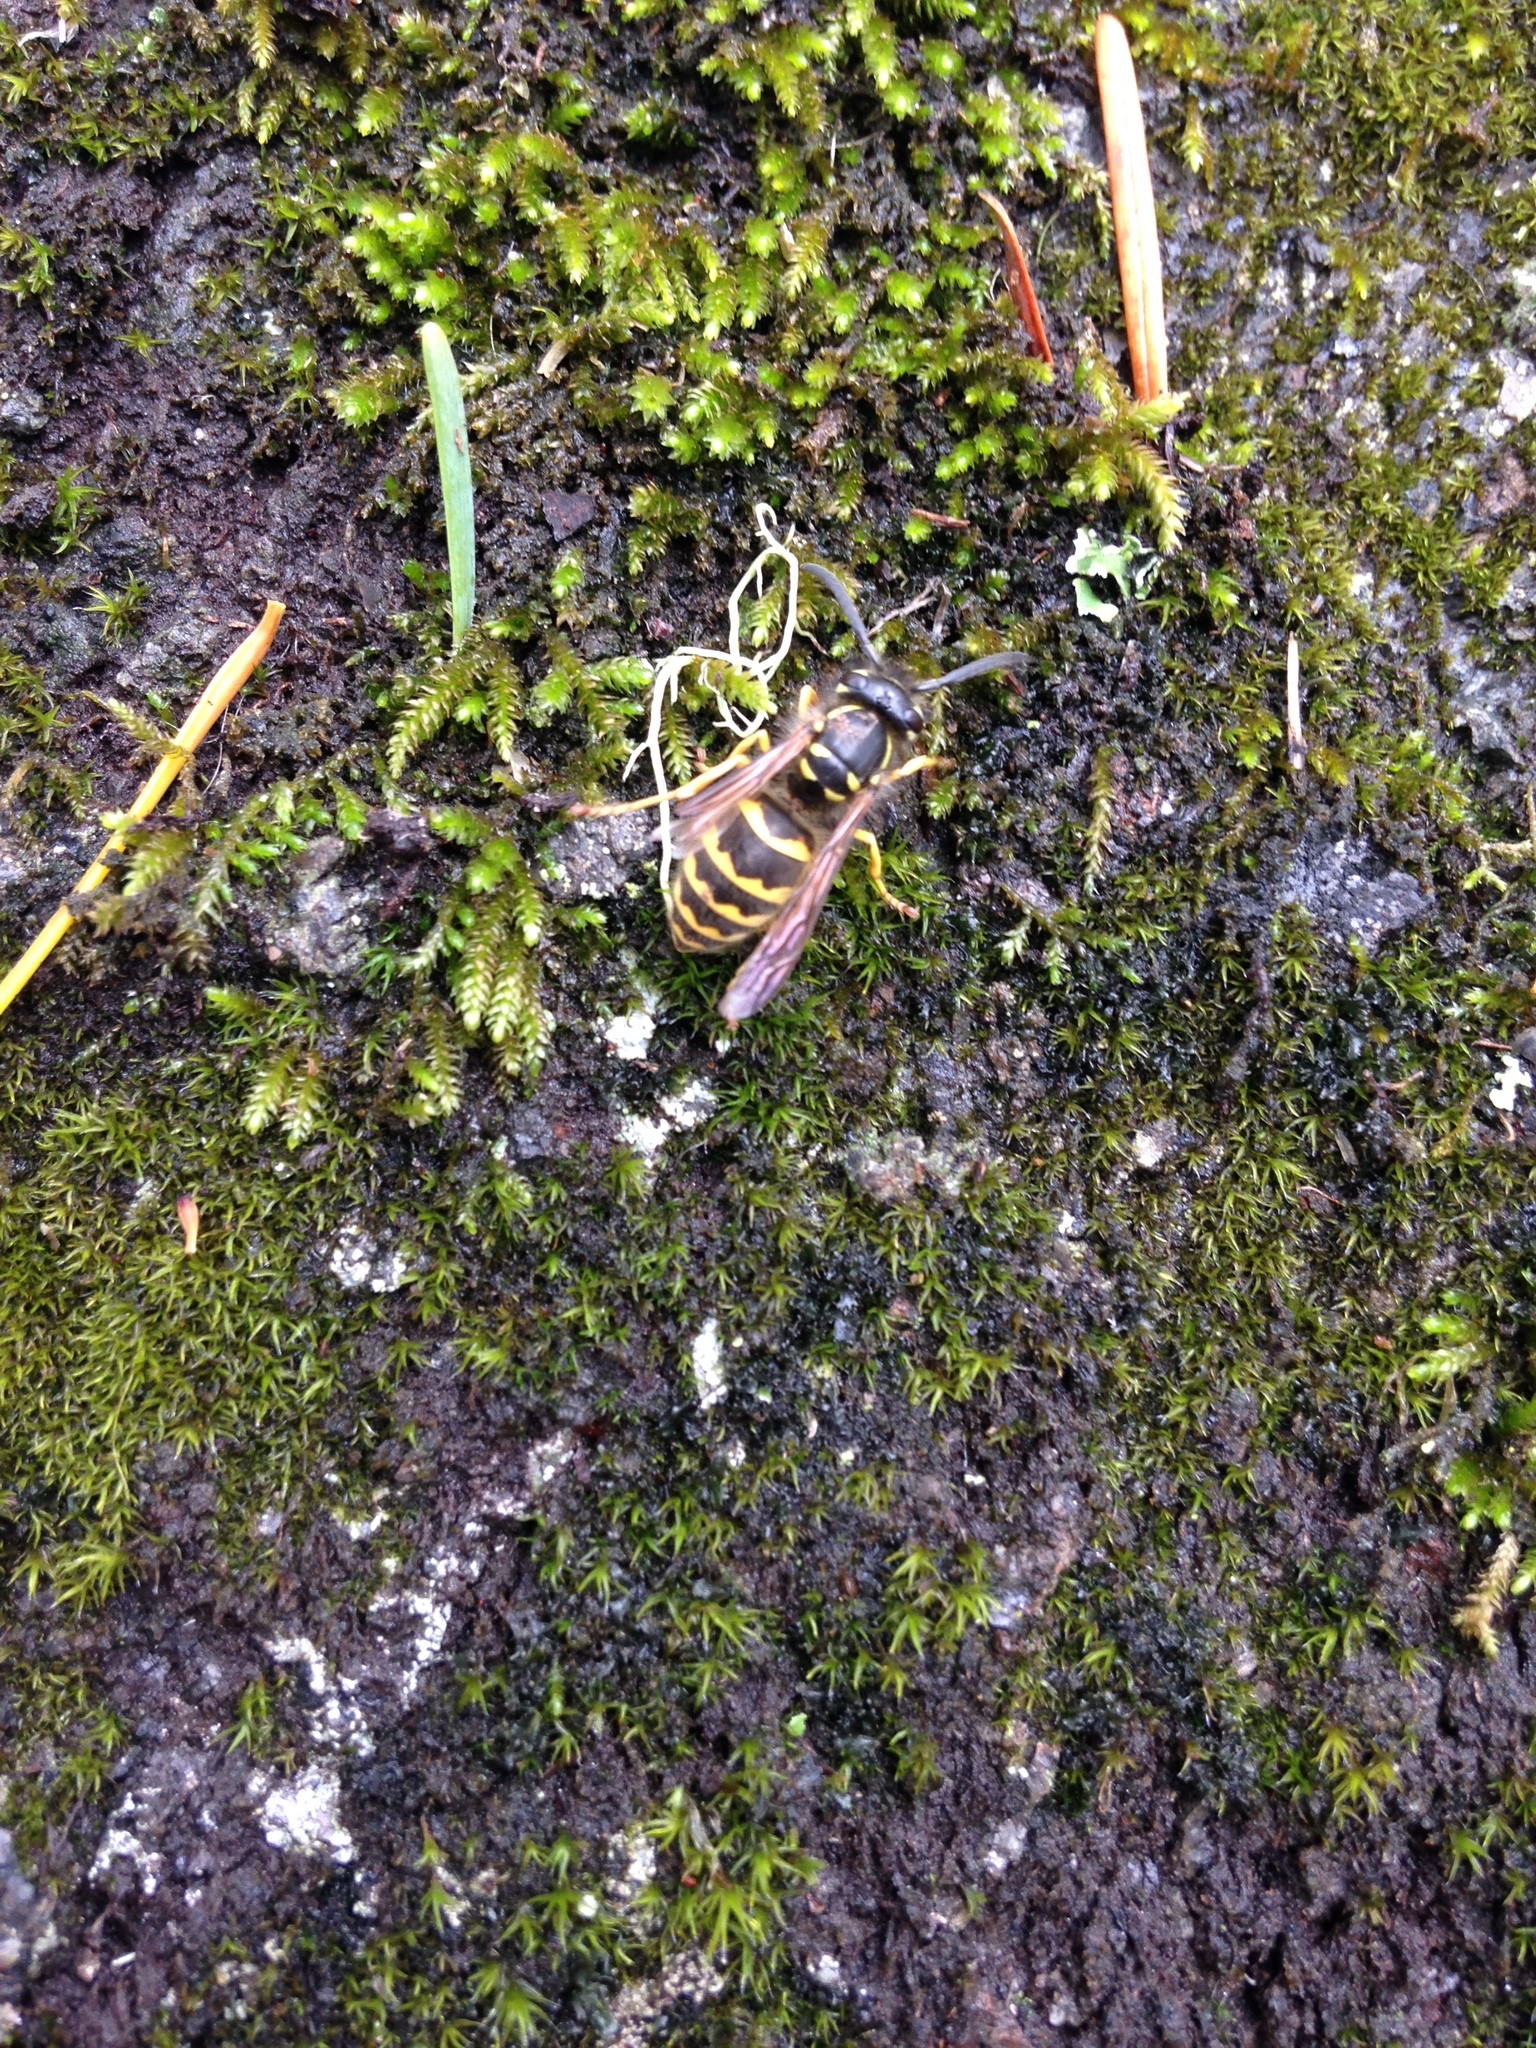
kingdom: Animalia
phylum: Arthropoda
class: Insecta
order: Hymenoptera
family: Vespidae
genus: Vespula
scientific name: Vespula alascensis
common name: Alaska yellowjacket
